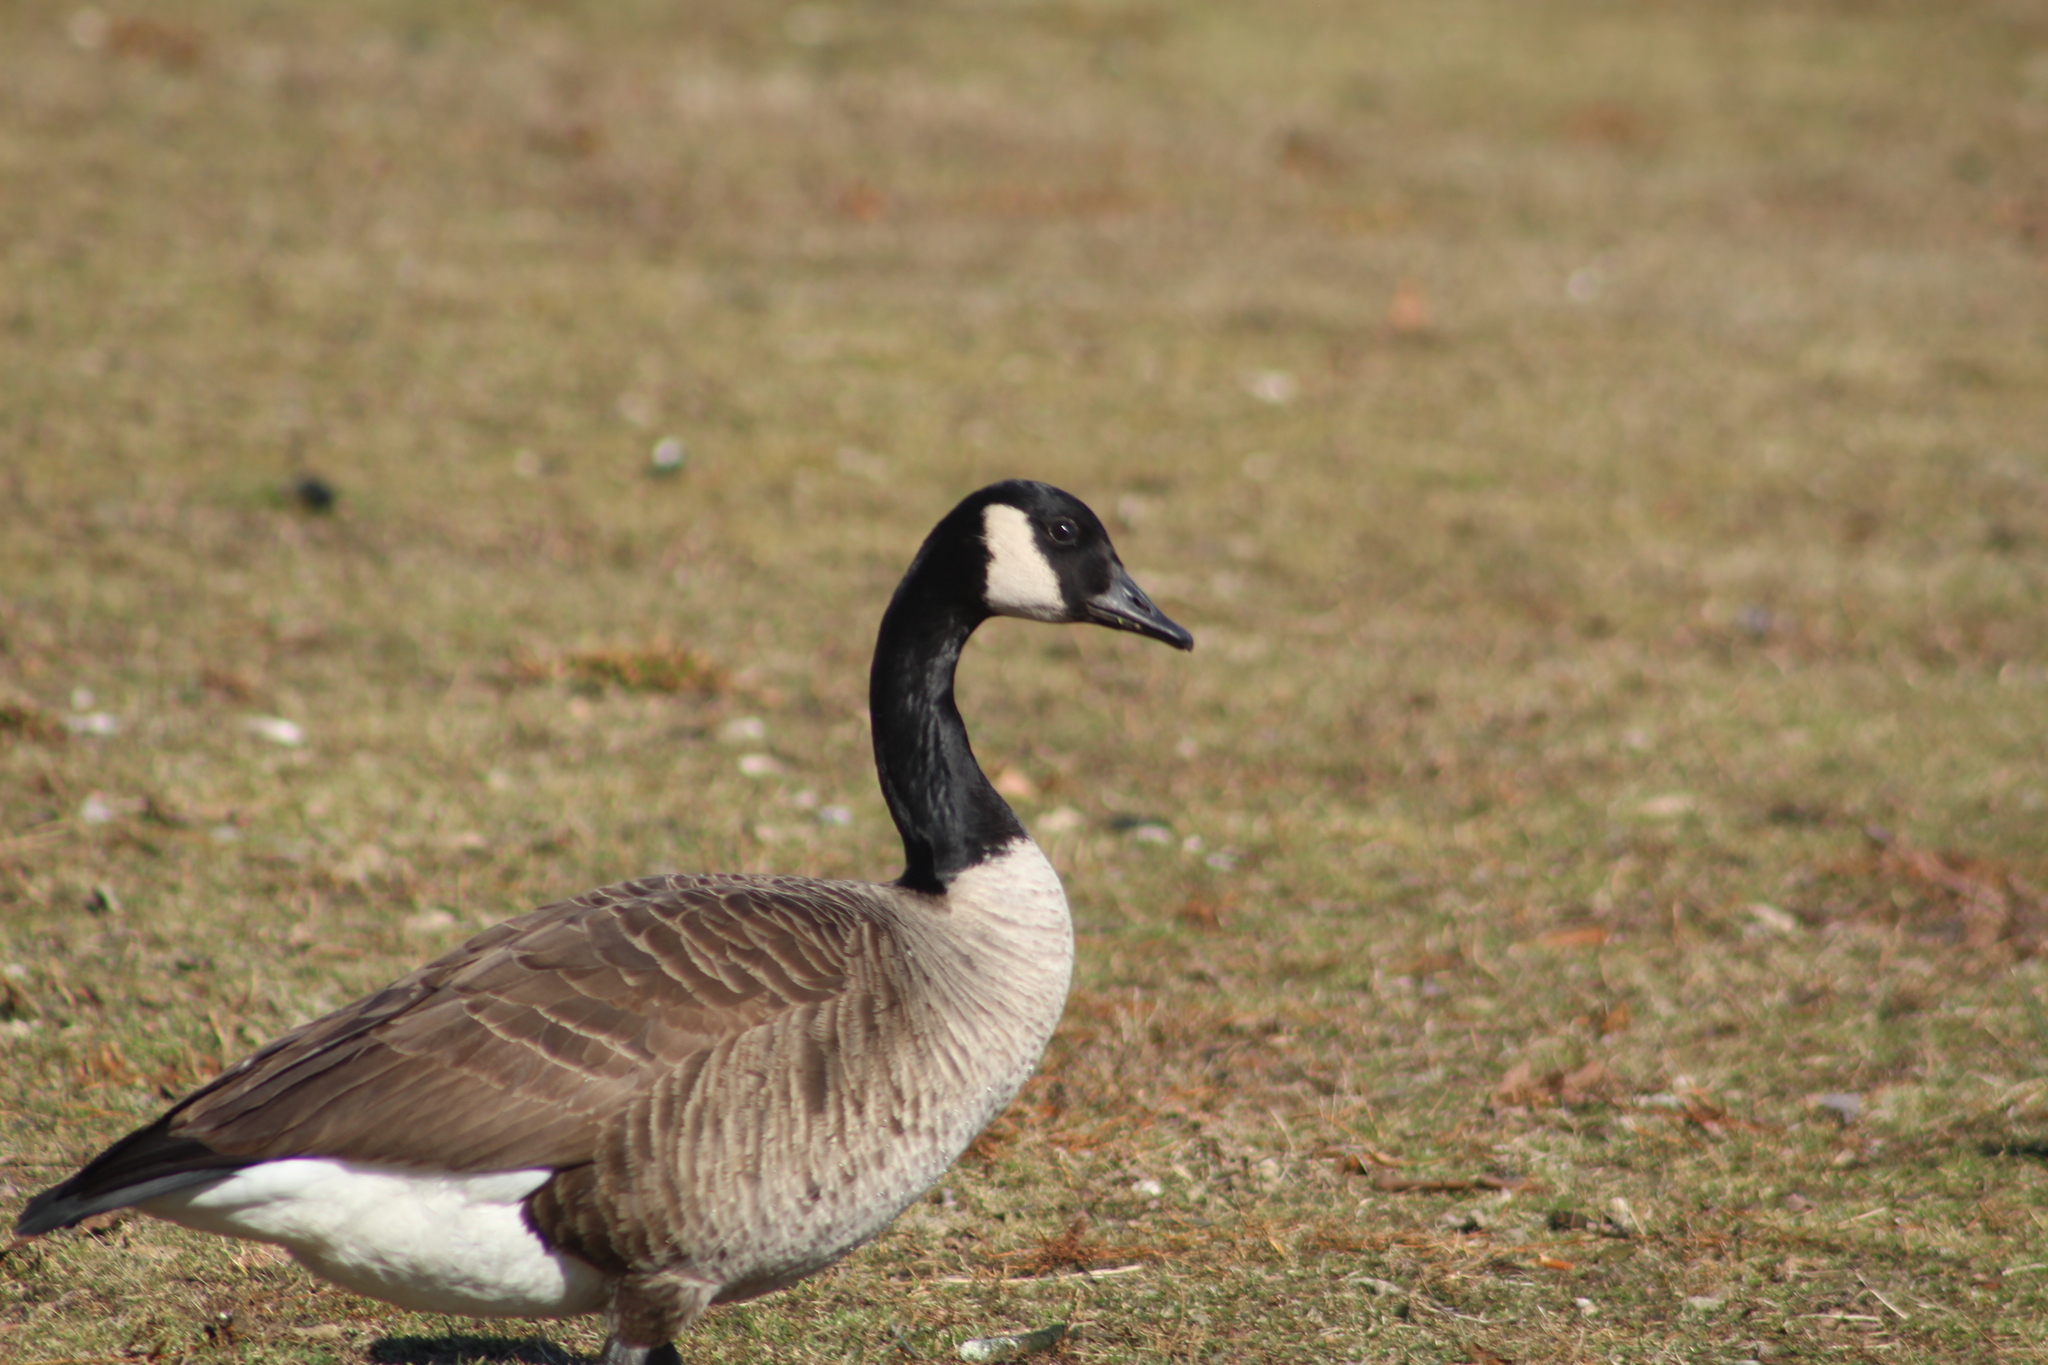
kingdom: Animalia
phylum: Chordata
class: Aves
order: Anseriformes
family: Anatidae
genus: Branta
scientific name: Branta canadensis
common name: Canada goose
